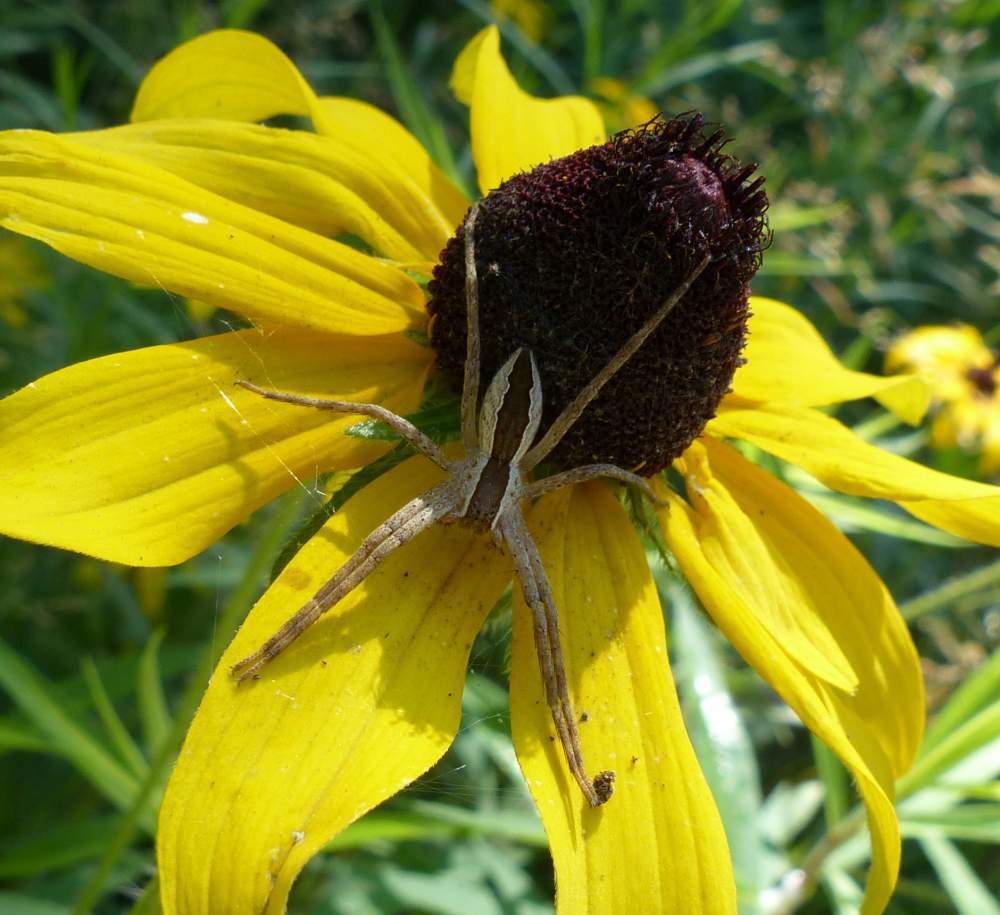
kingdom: Animalia
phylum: Arthropoda
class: Arachnida
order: Araneae
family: Pisauridae
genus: Pisaurina
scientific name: Pisaurina mira
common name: American nursery web spider
